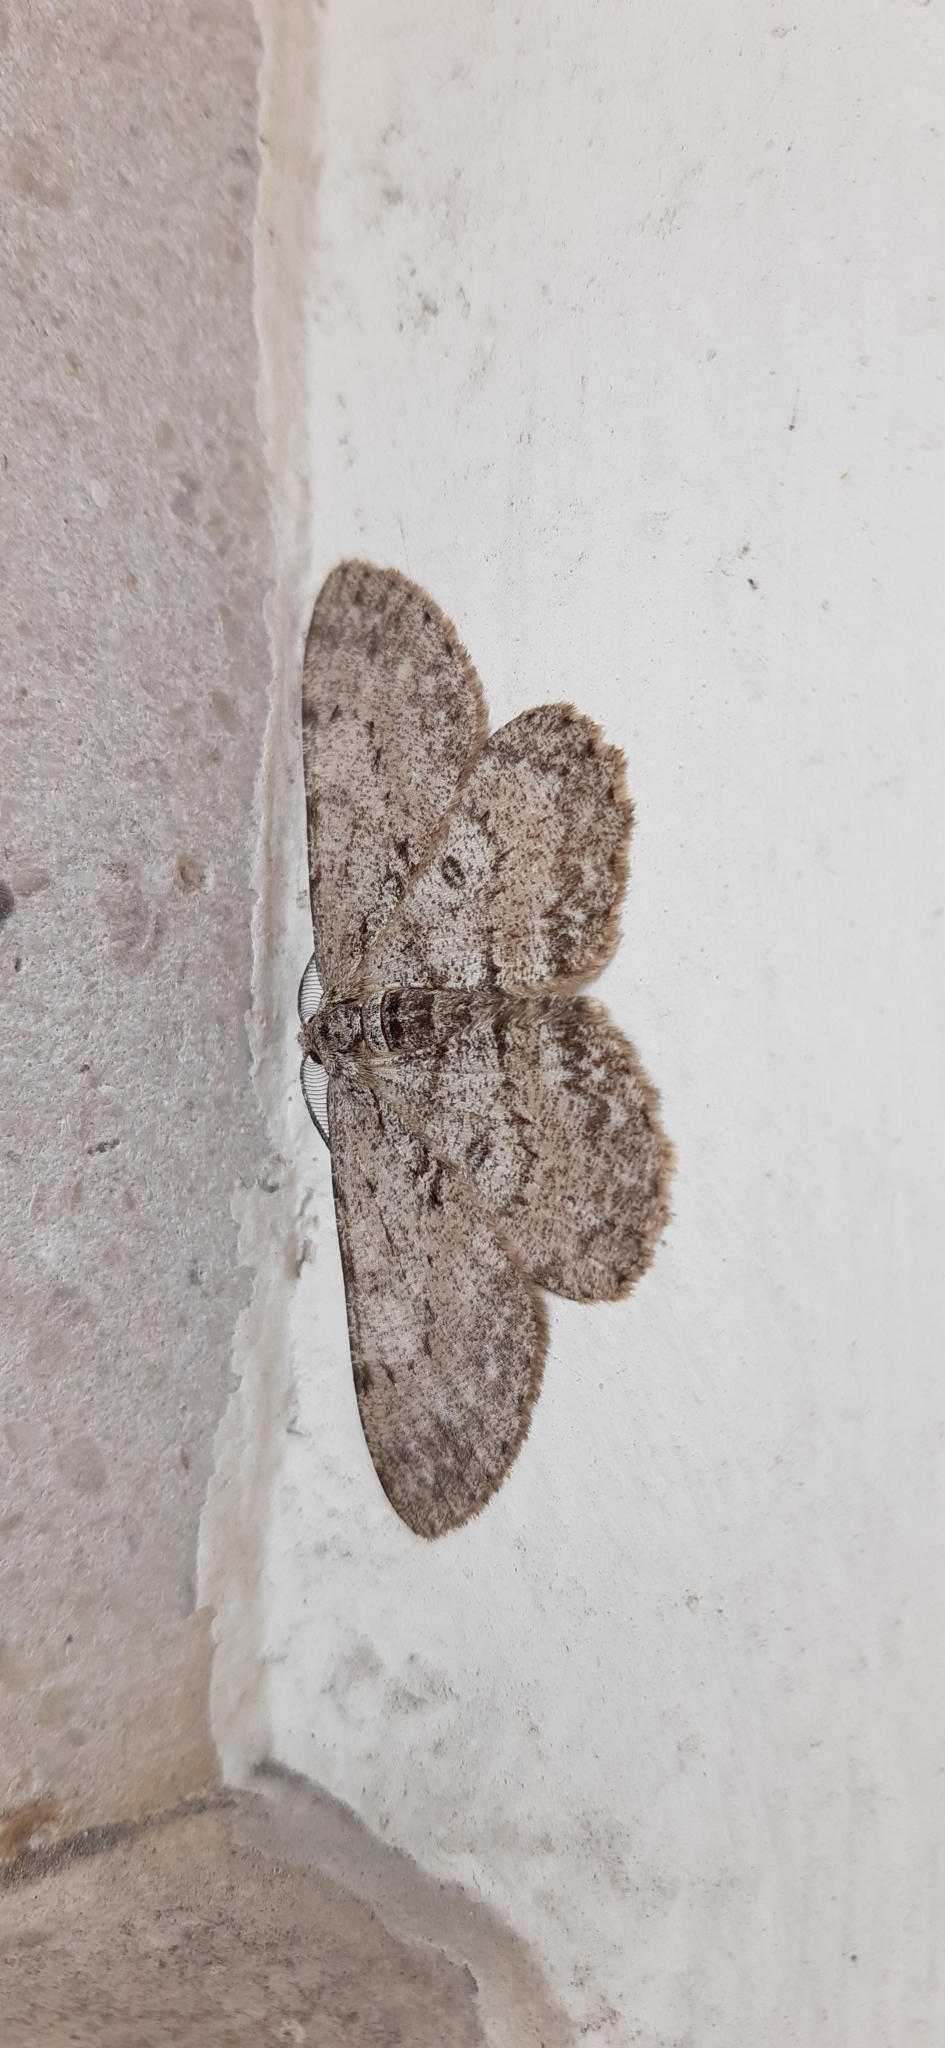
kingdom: Animalia
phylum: Arthropoda
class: Insecta
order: Lepidoptera
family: Geometridae
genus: Hypomecis
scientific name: Hypomecis punctinalis
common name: Pale oak beauty
